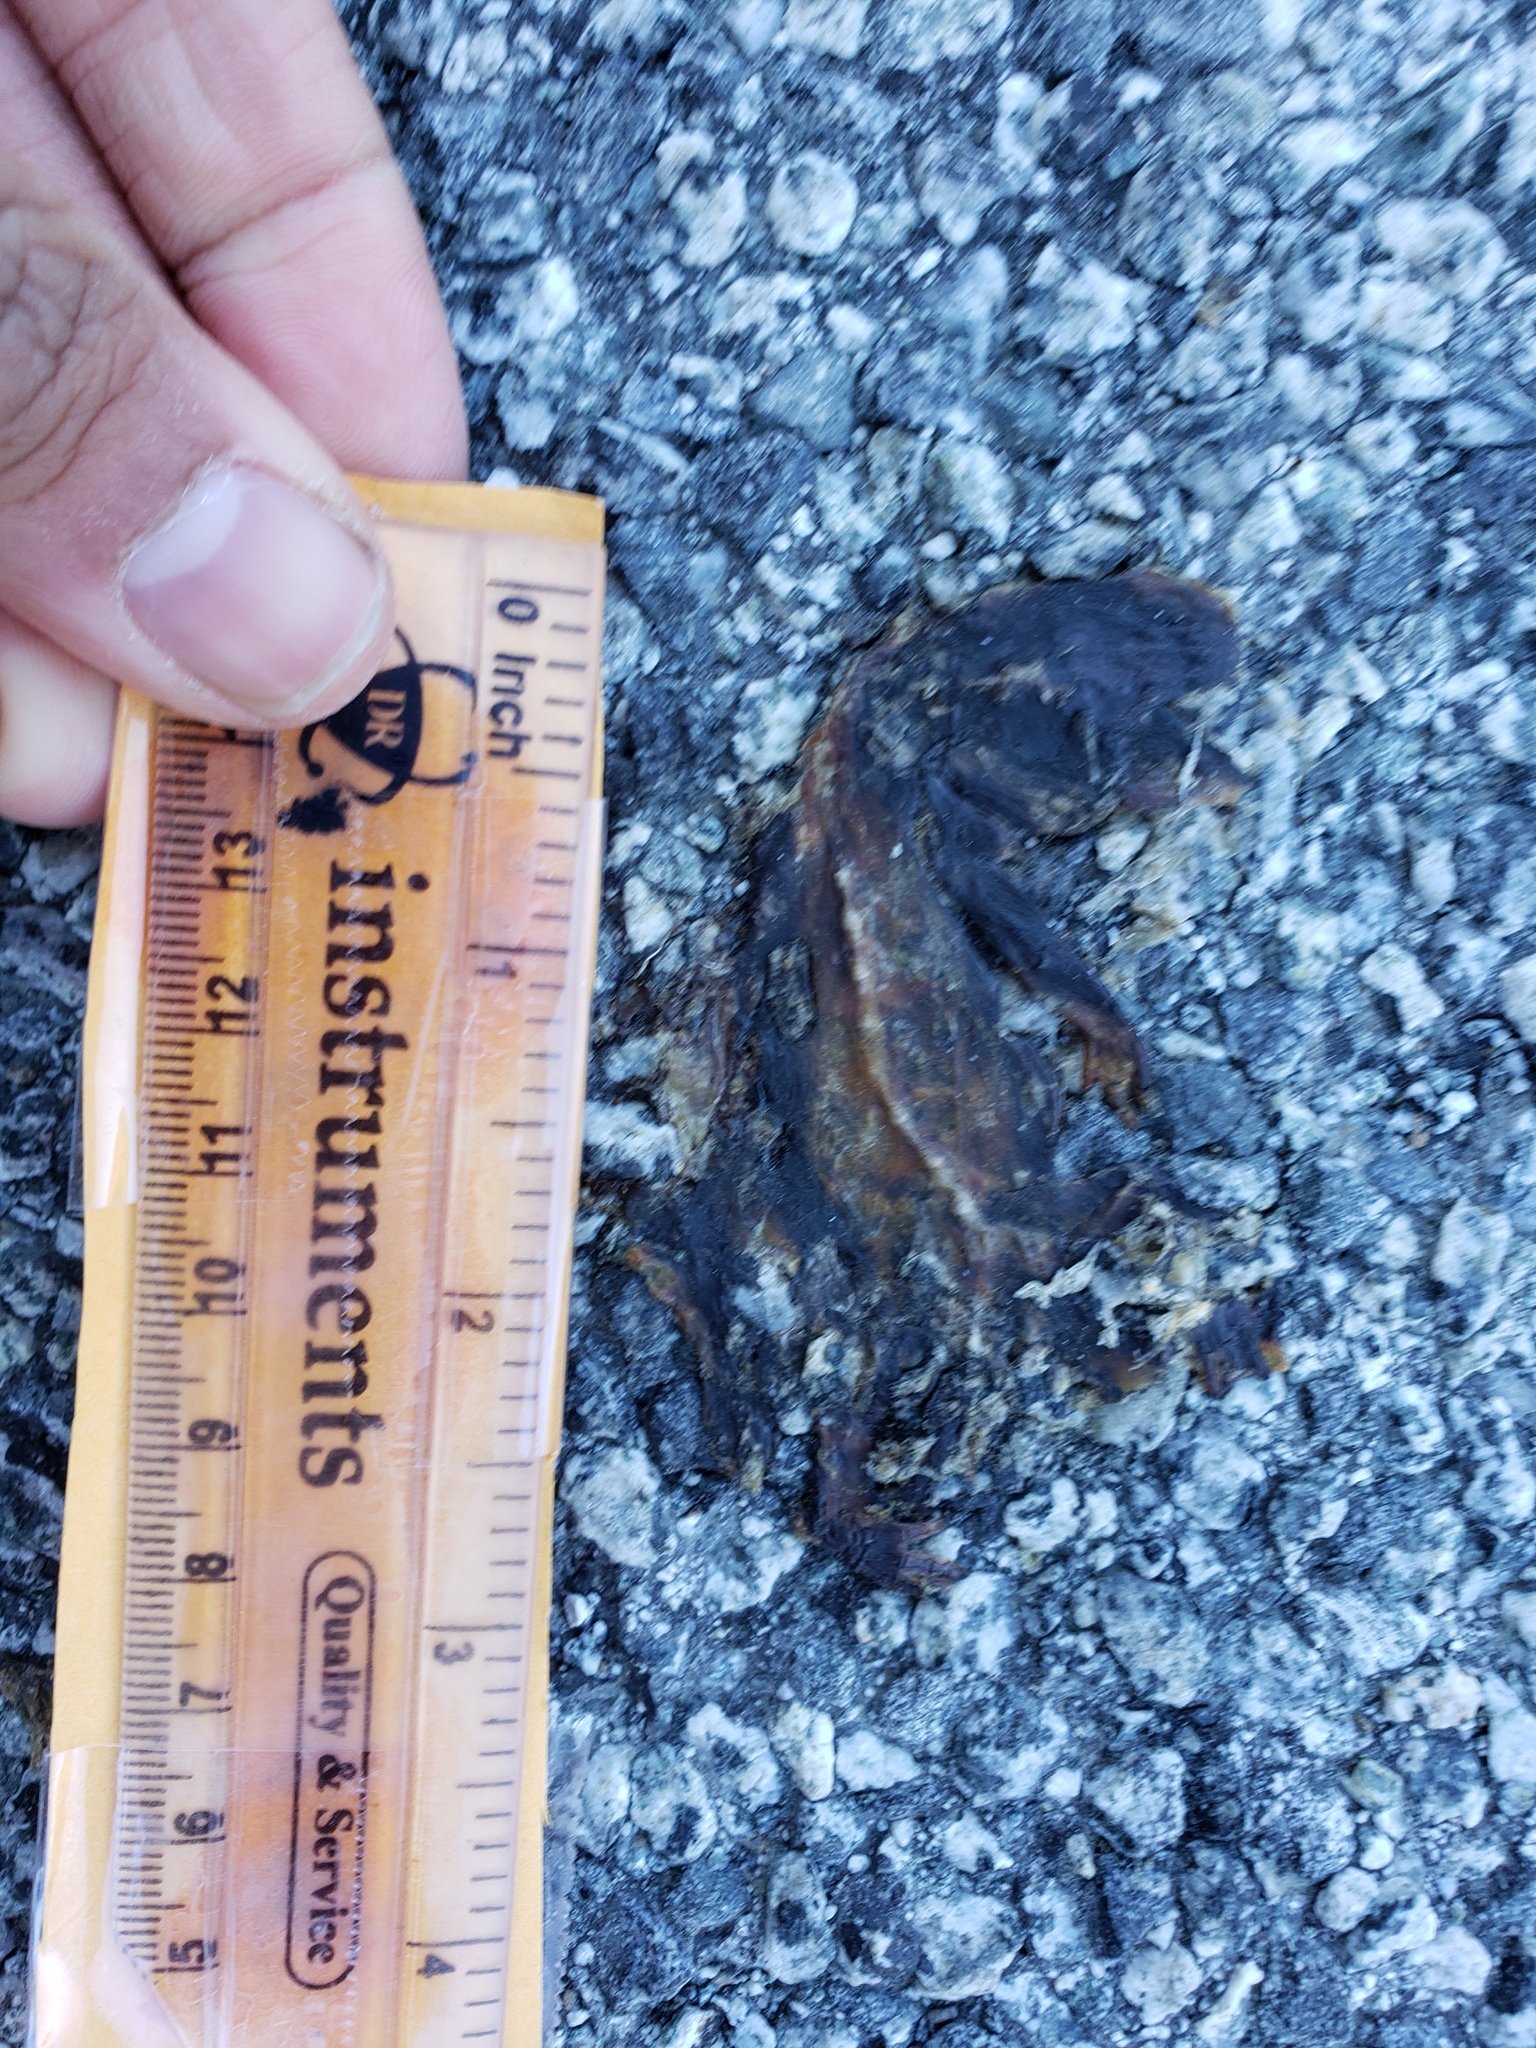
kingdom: Animalia
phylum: Chordata
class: Amphibia
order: Caudata
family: Salamandridae
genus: Taricha
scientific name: Taricha
